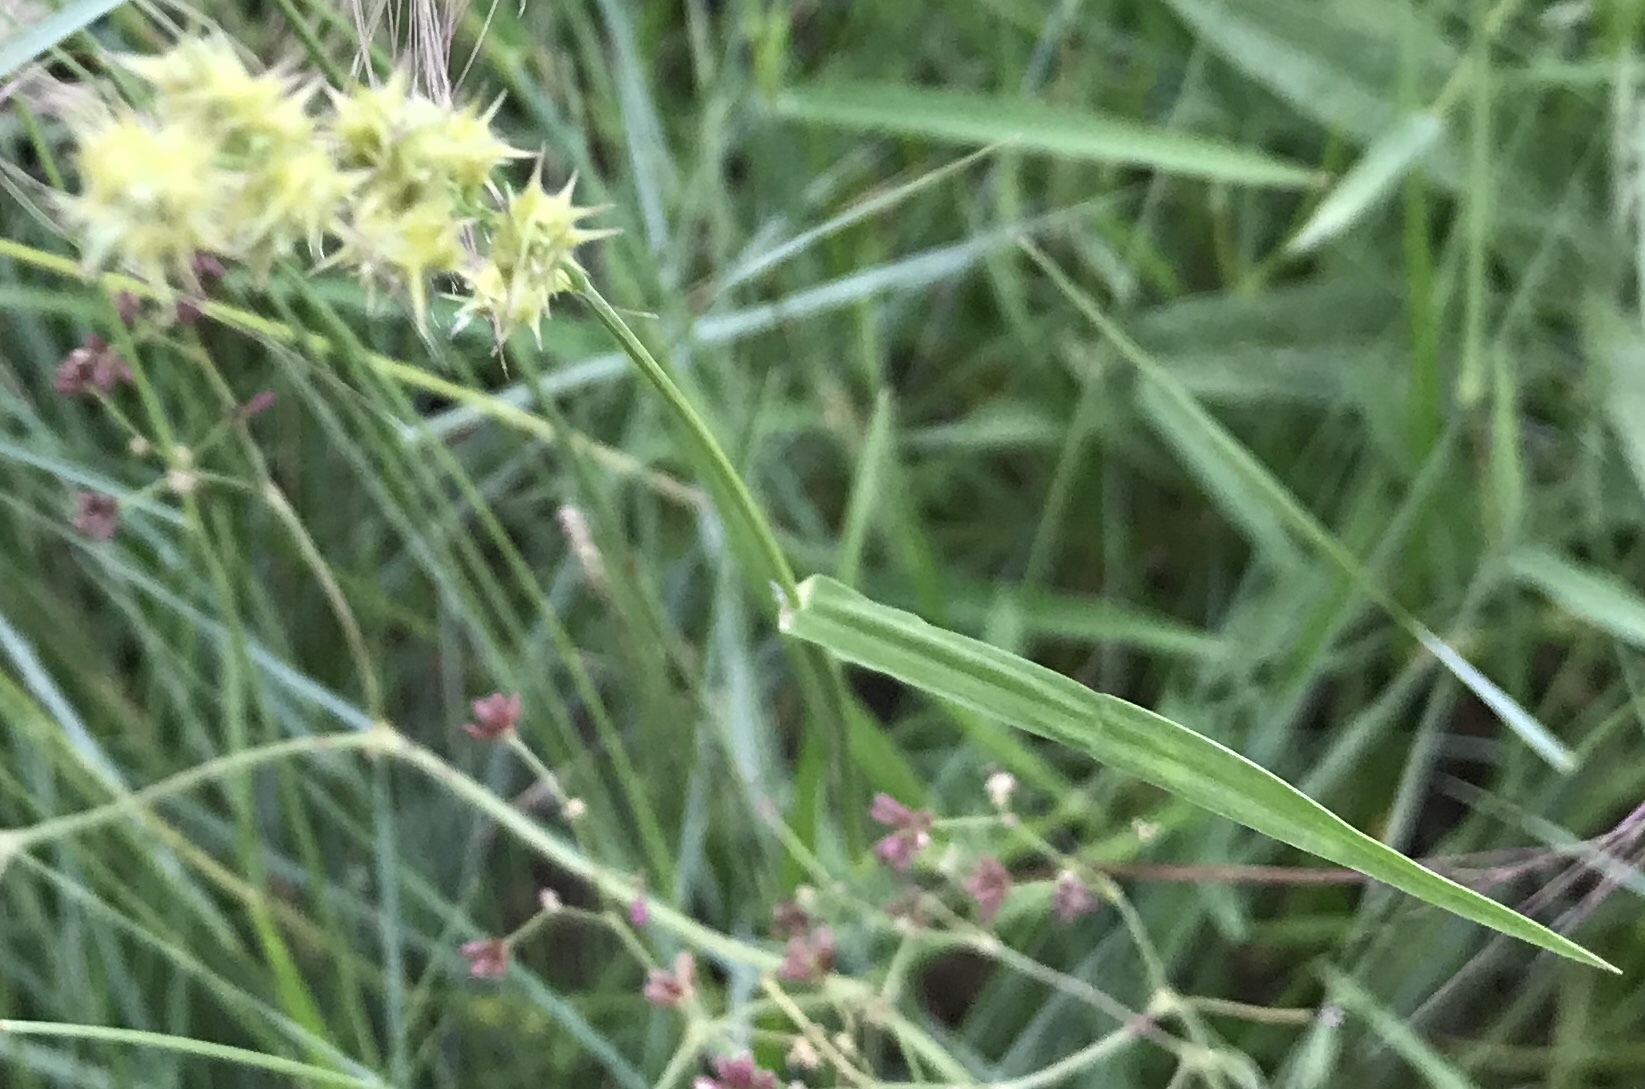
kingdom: Plantae
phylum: Tracheophyta
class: Liliopsida
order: Poales
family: Poaceae
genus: Cenchrus
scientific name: Cenchrus spinifex
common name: Coast sandbur
